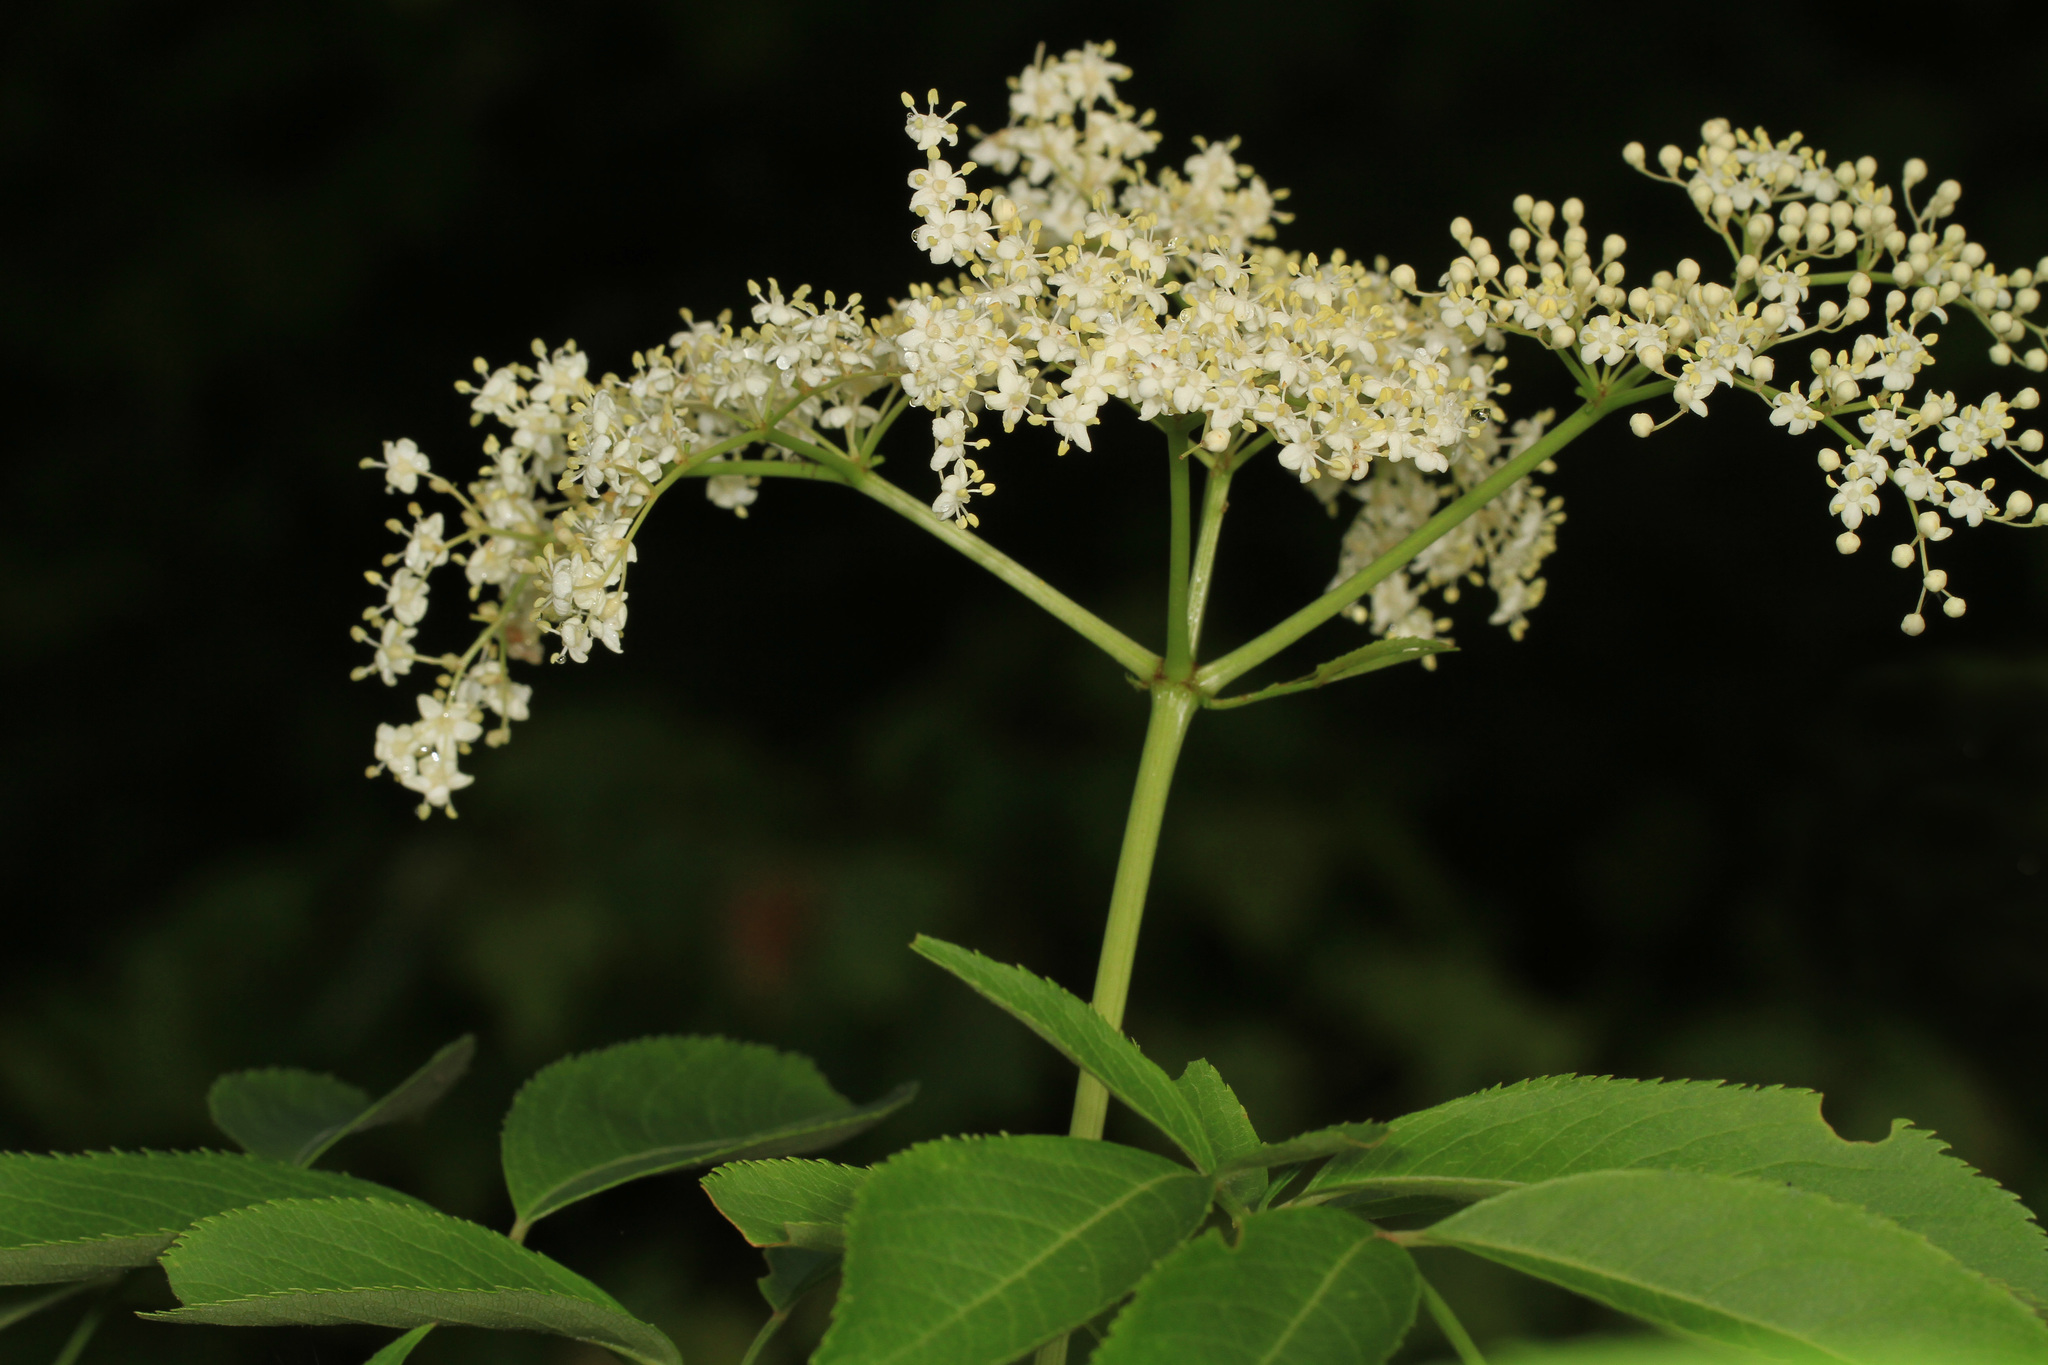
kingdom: Plantae
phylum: Tracheophyta
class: Magnoliopsida
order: Dipsacales
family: Viburnaceae
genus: Sambucus
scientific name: Sambucus canadensis
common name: American elder
